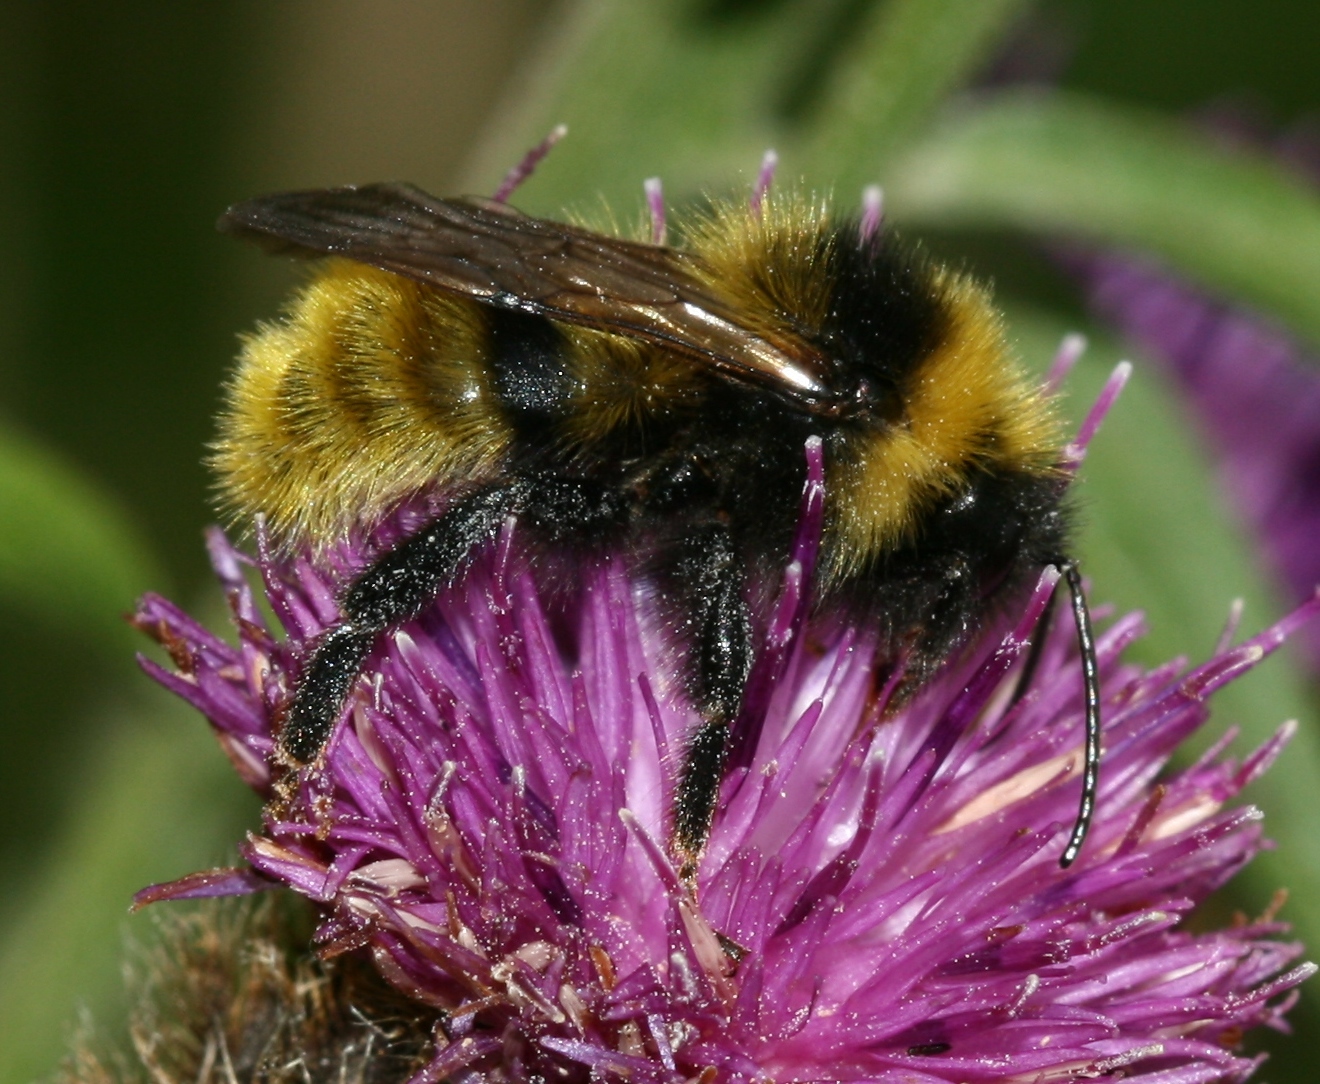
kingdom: Animalia
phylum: Arthropoda
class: Insecta
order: Hymenoptera
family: Apidae
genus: Bombus
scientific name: Bombus campestris
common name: Field cuckoo-bee
